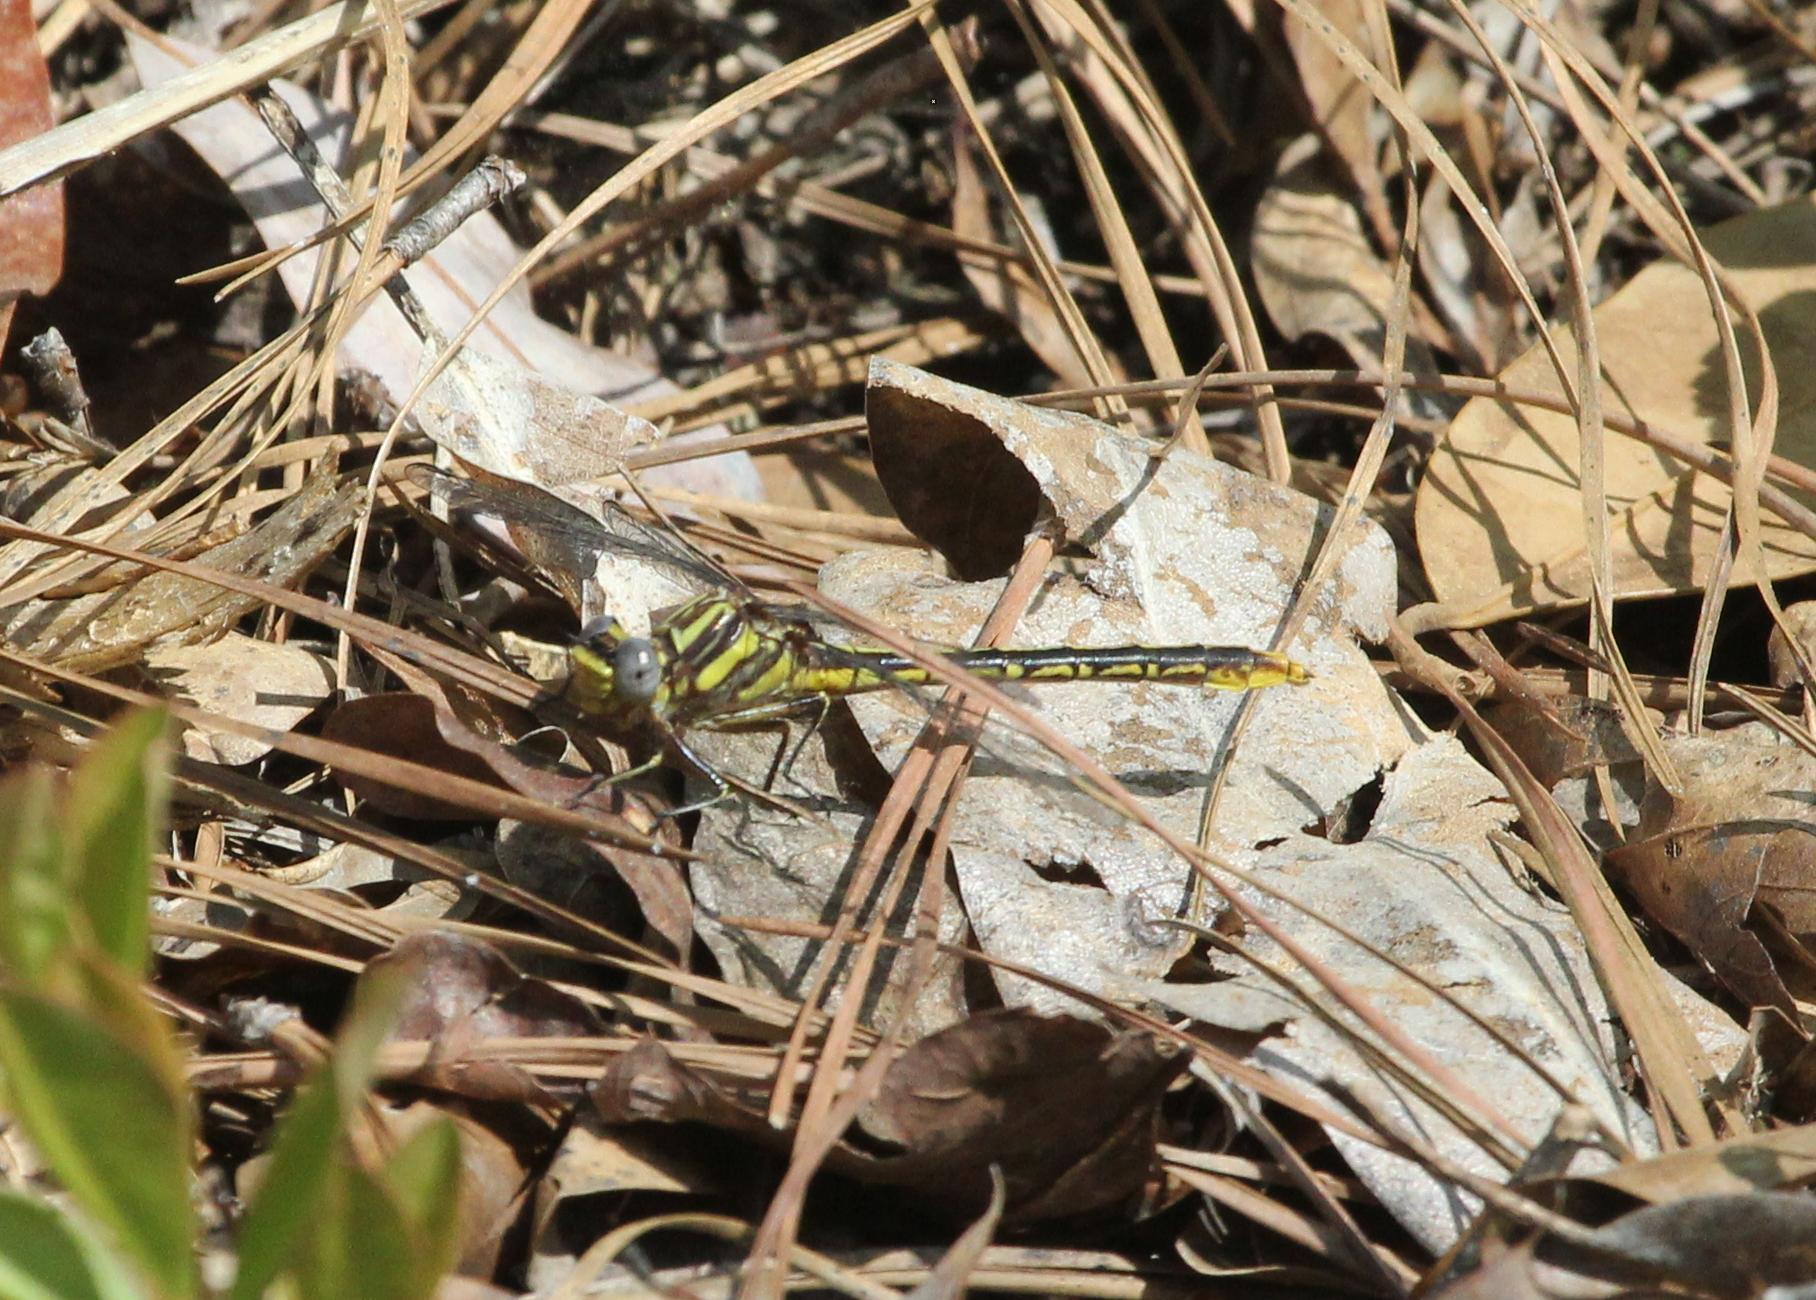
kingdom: Animalia
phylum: Arthropoda
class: Insecta
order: Odonata
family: Gomphidae
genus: Phanogomphus
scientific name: Phanogomphus exilis
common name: Lancet clubtail
